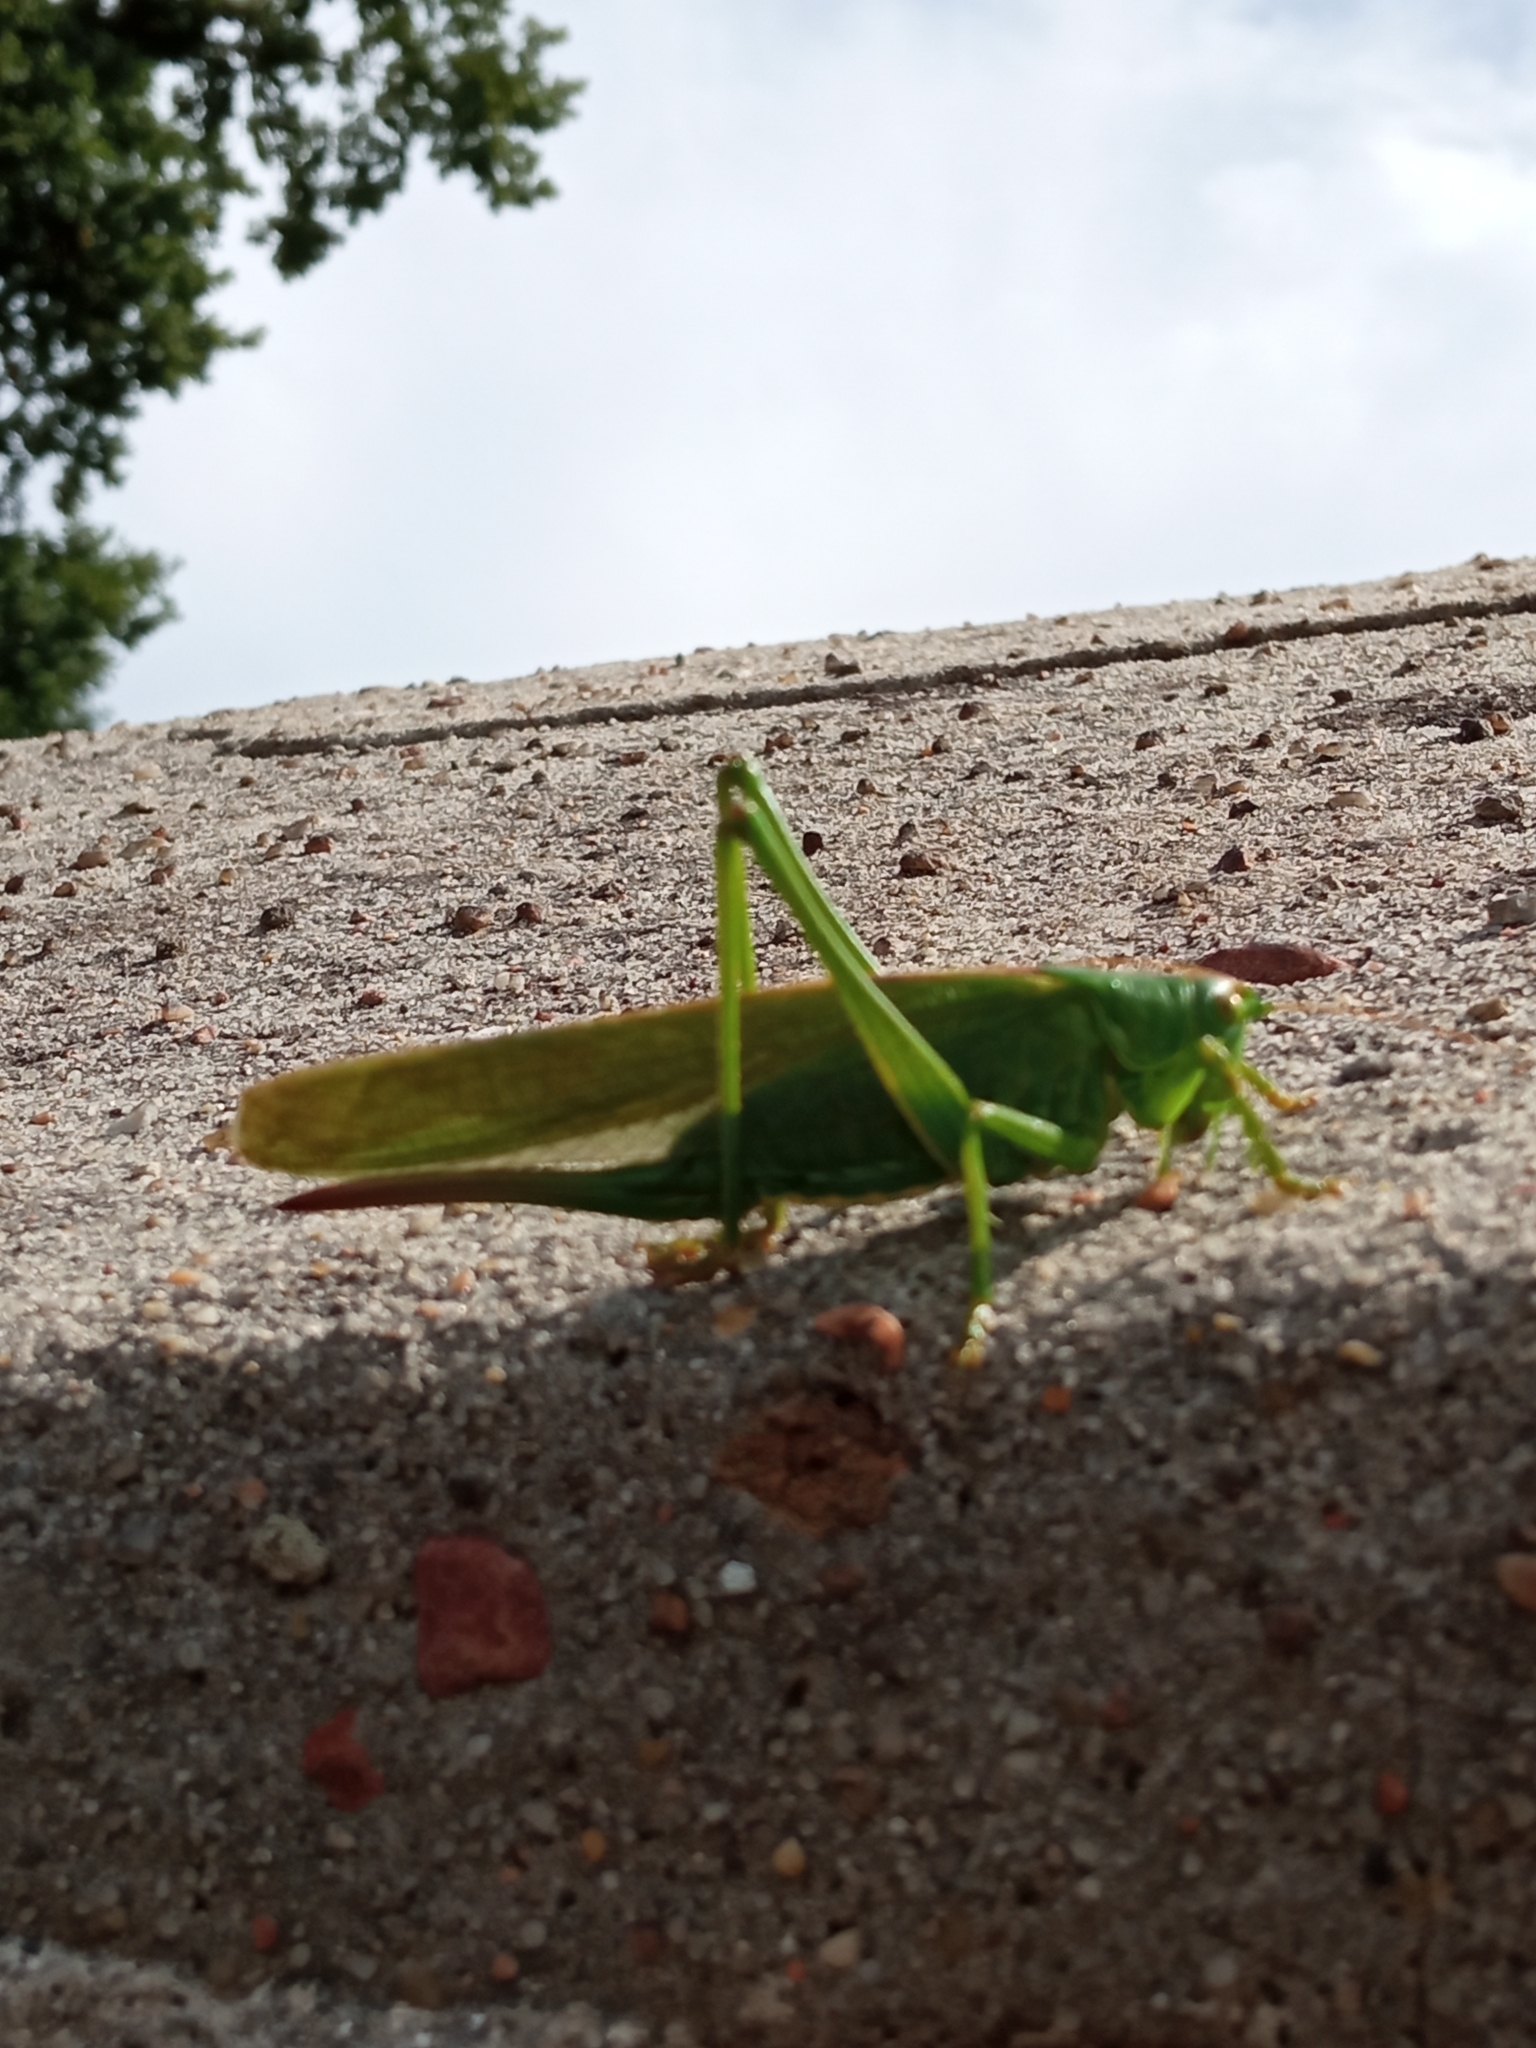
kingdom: Animalia
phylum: Arthropoda
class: Insecta
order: Orthoptera
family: Tettigoniidae
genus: Tettigonia
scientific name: Tettigonia viridissima
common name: Great green bush-cricket
